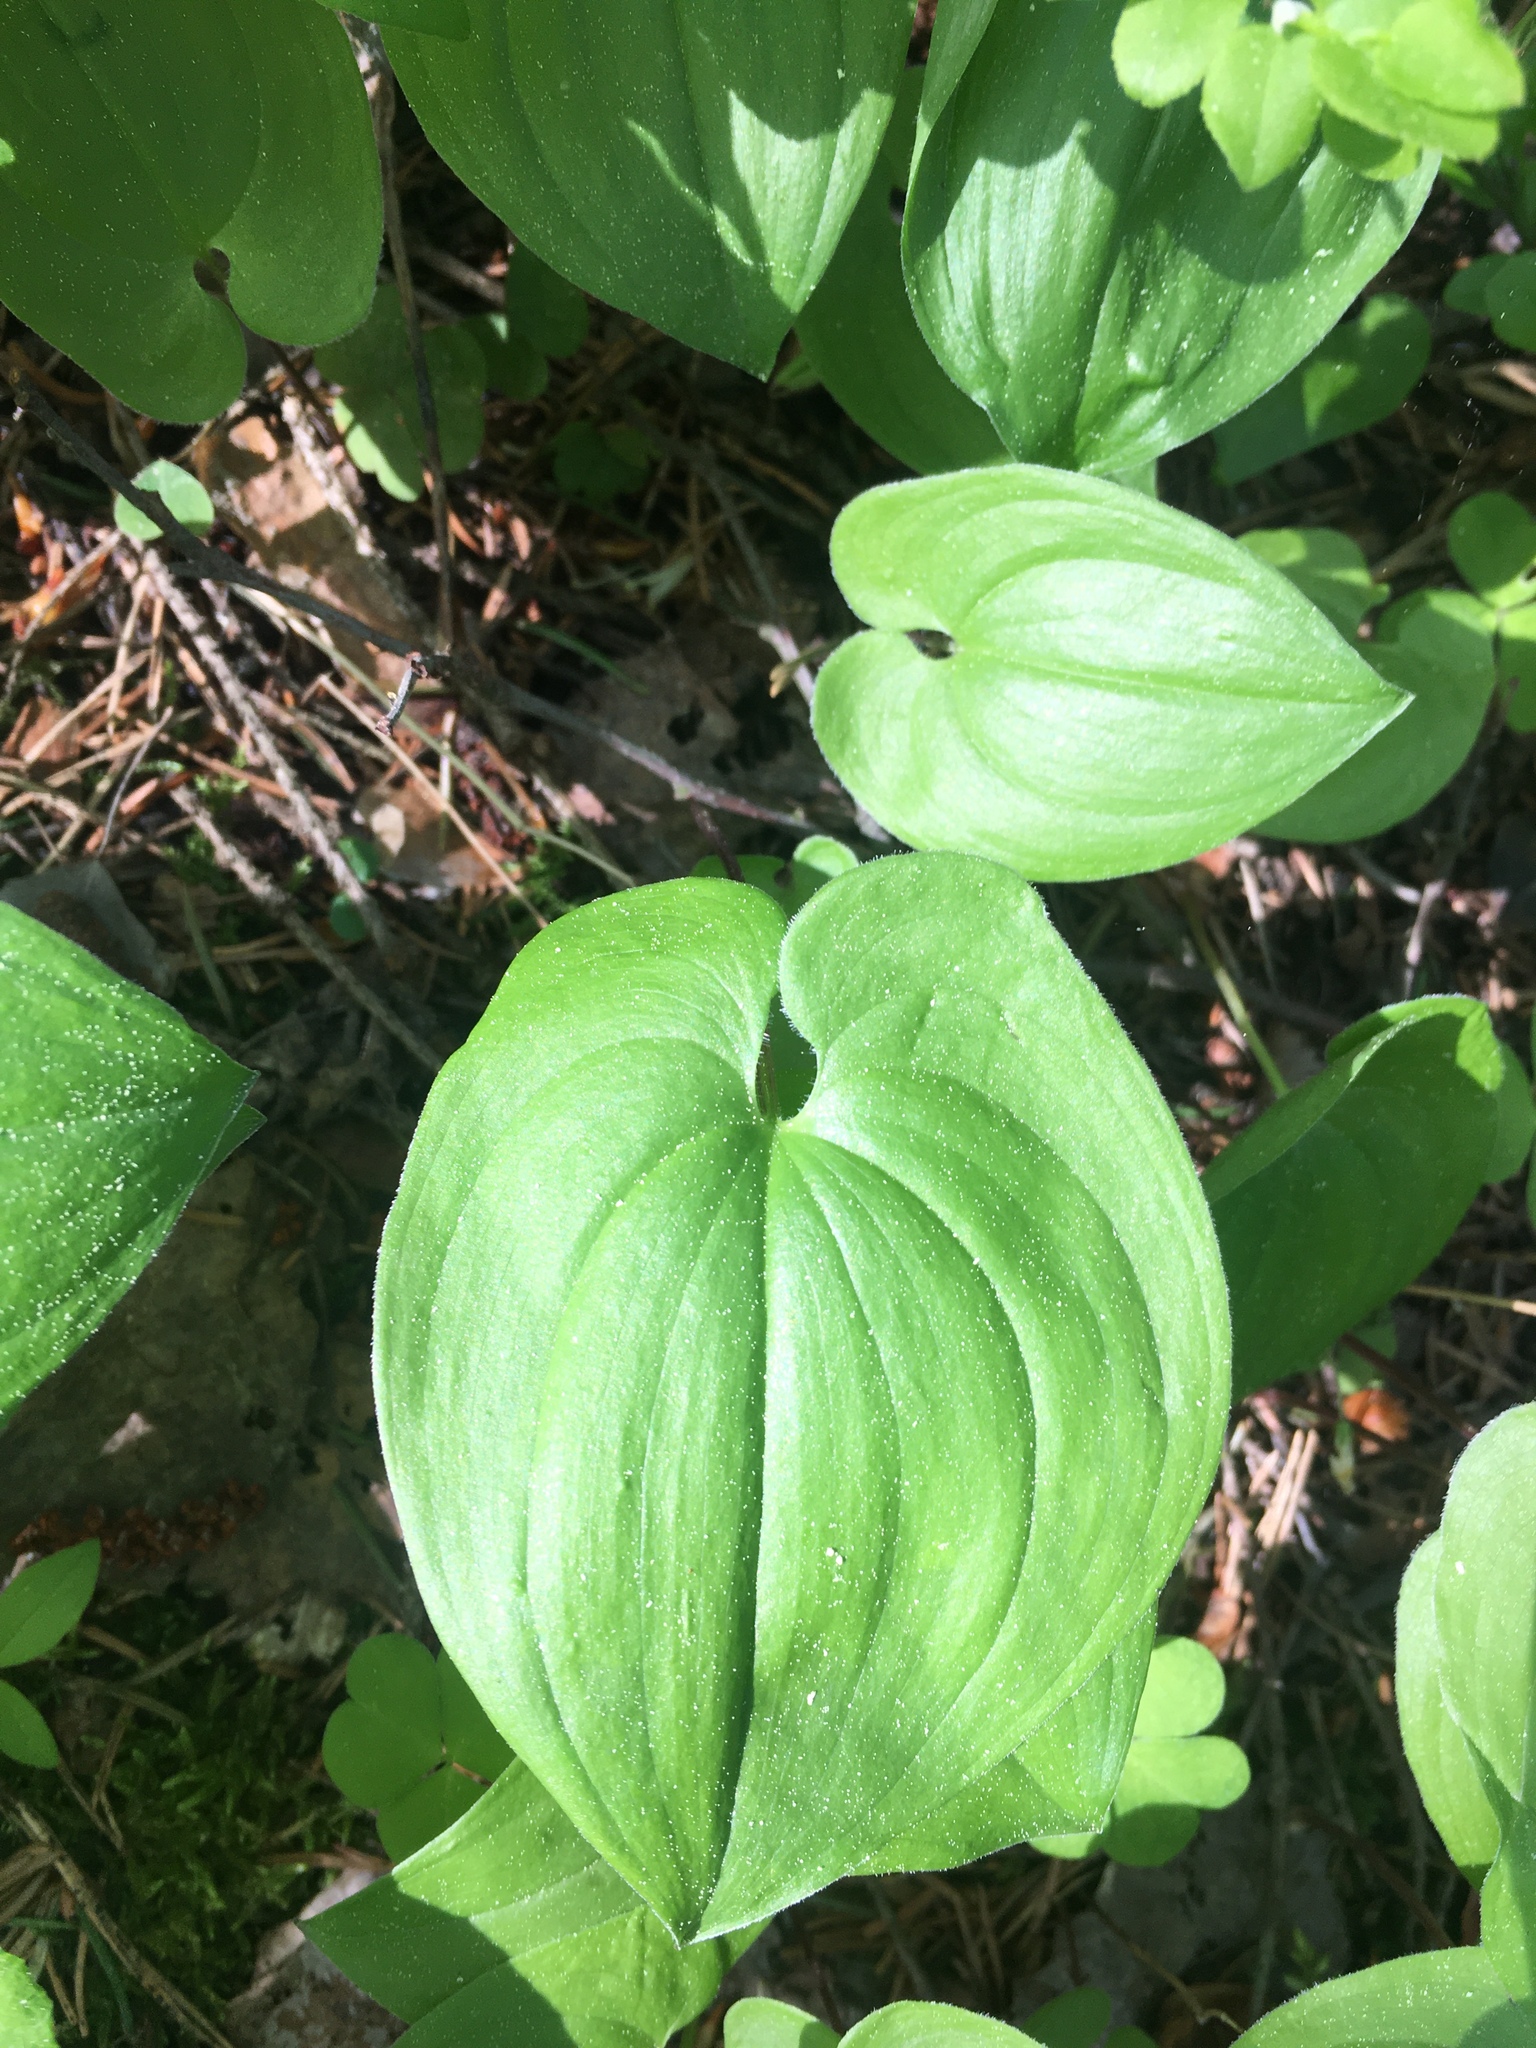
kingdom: Plantae
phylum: Tracheophyta
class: Liliopsida
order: Asparagales
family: Asparagaceae
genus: Maianthemum
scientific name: Maianthemum bifolium
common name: May lily
